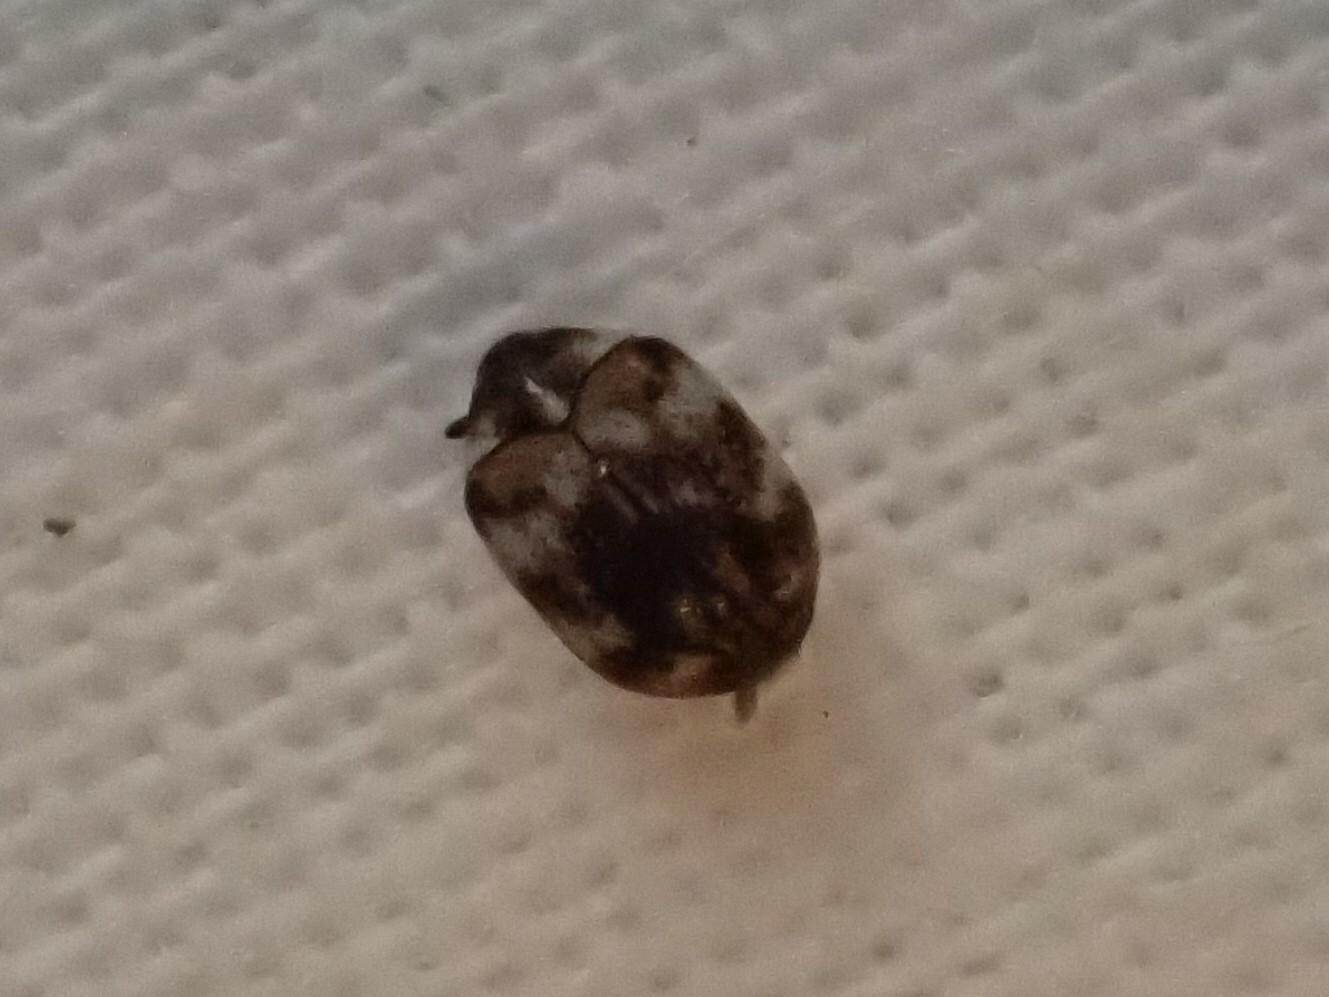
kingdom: Animalia
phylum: Arthropoda
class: Insecta
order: Coleoptera
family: Dermestidae
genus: Anthrenus
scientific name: Anthrenus verbasci
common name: Varied carpet beetle
